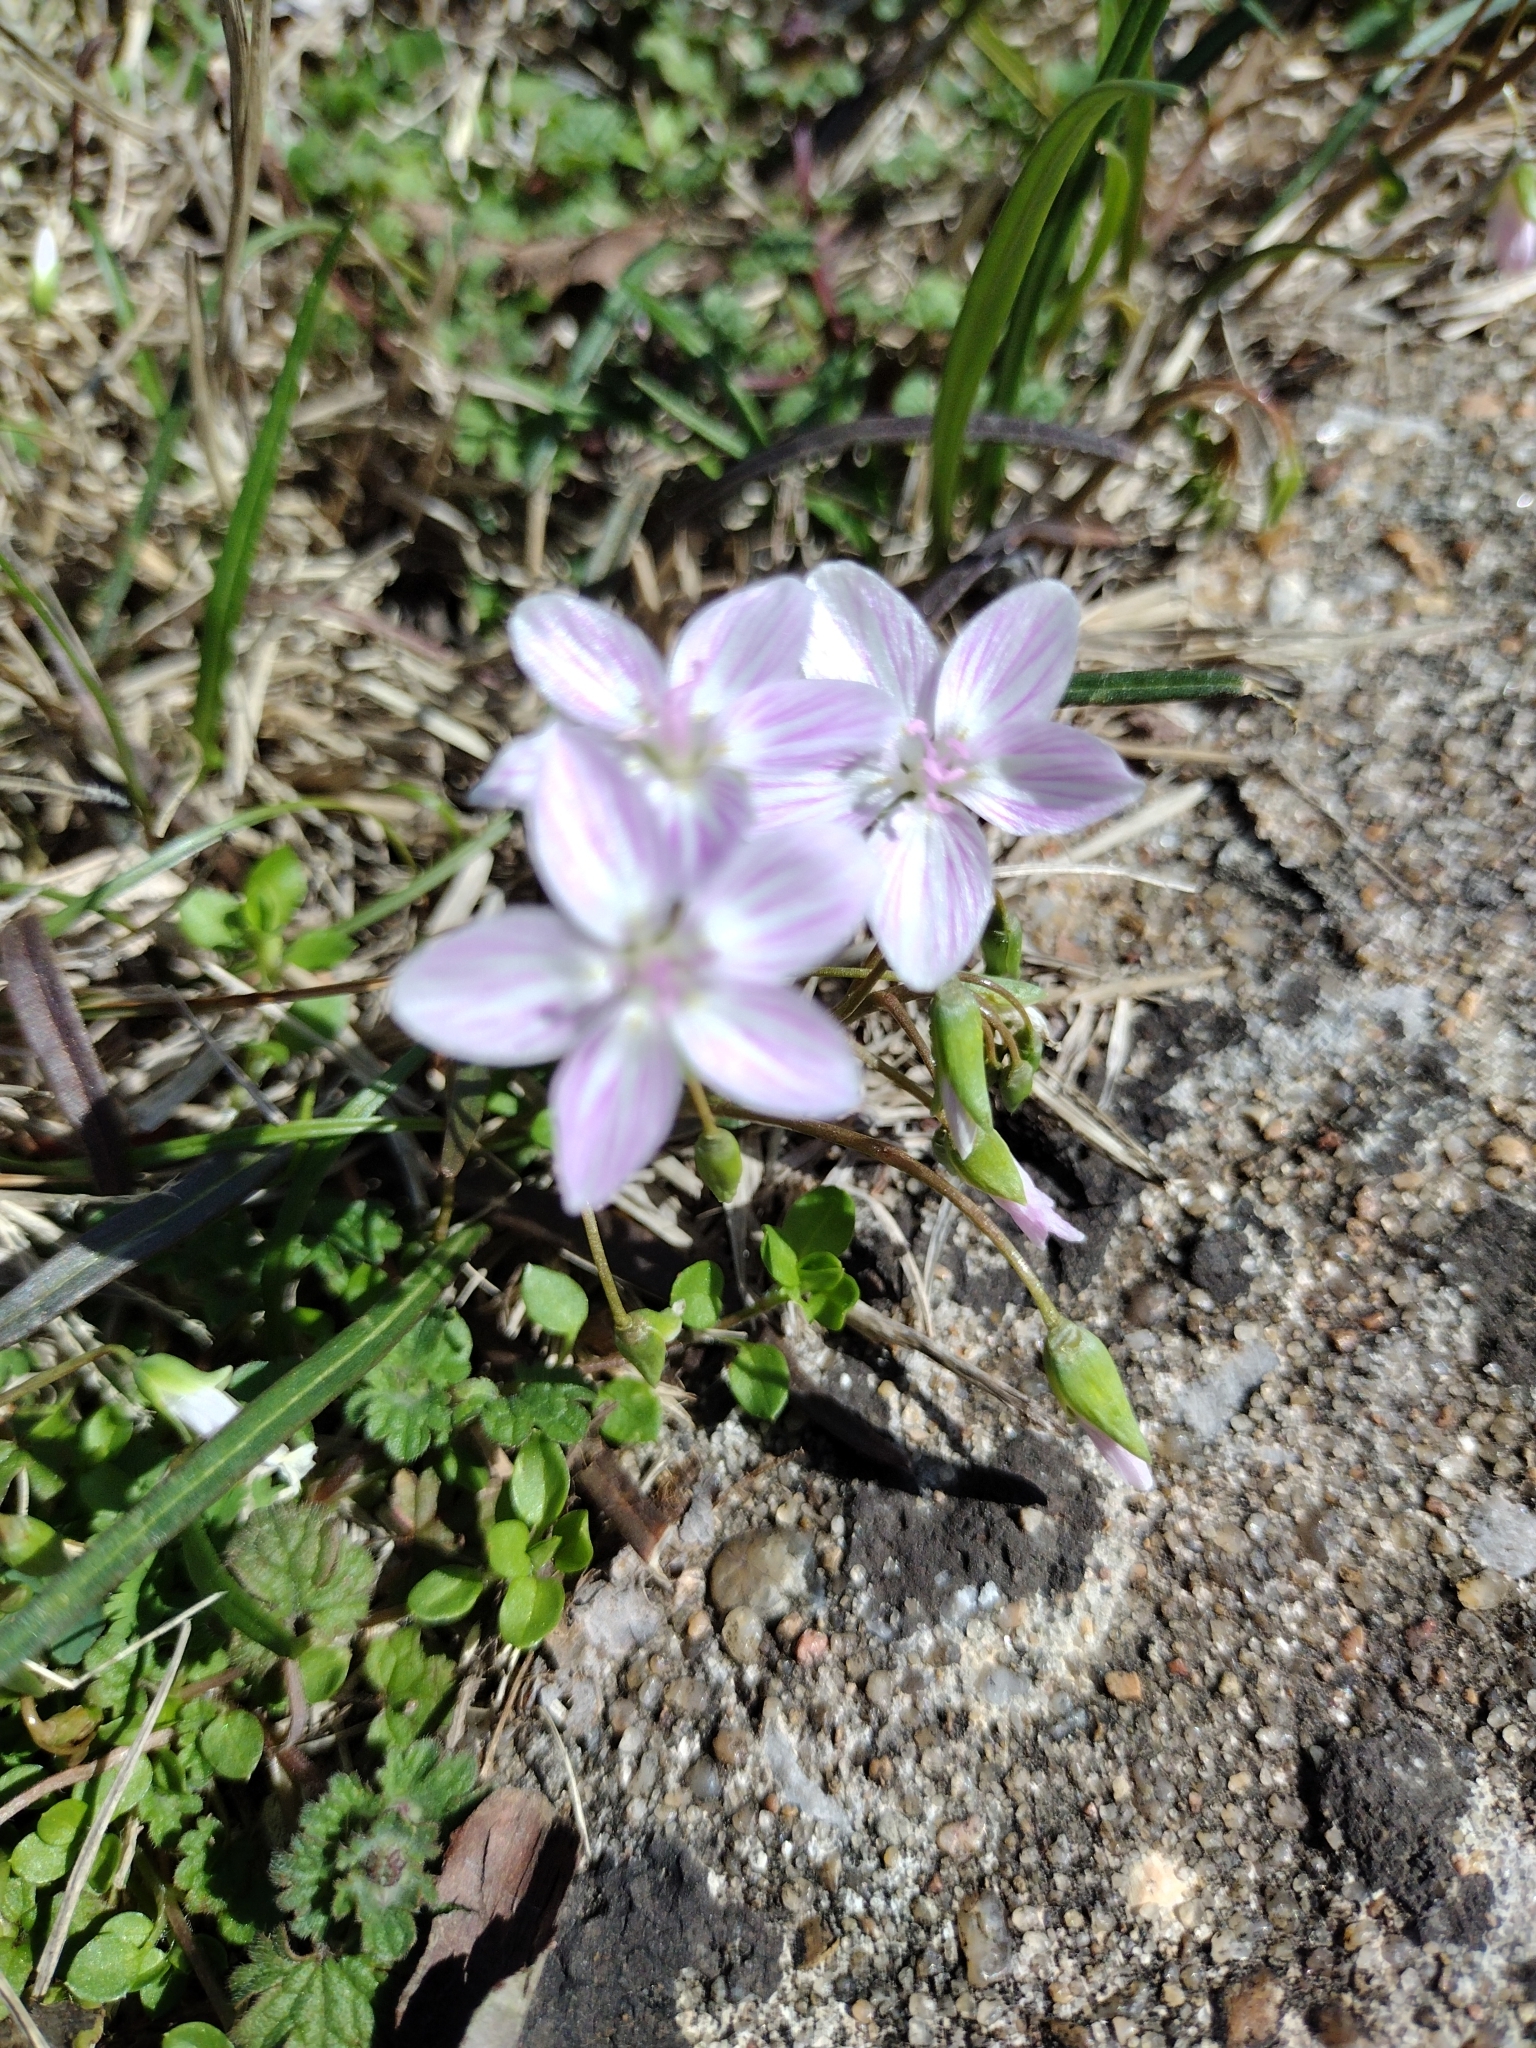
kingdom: Plantae
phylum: Tracheophyta
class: Magnoliopsida
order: Caryophyllales
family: Montiaceae
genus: Claytonia
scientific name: Claytonia virginica
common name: Virginia springbeauty
